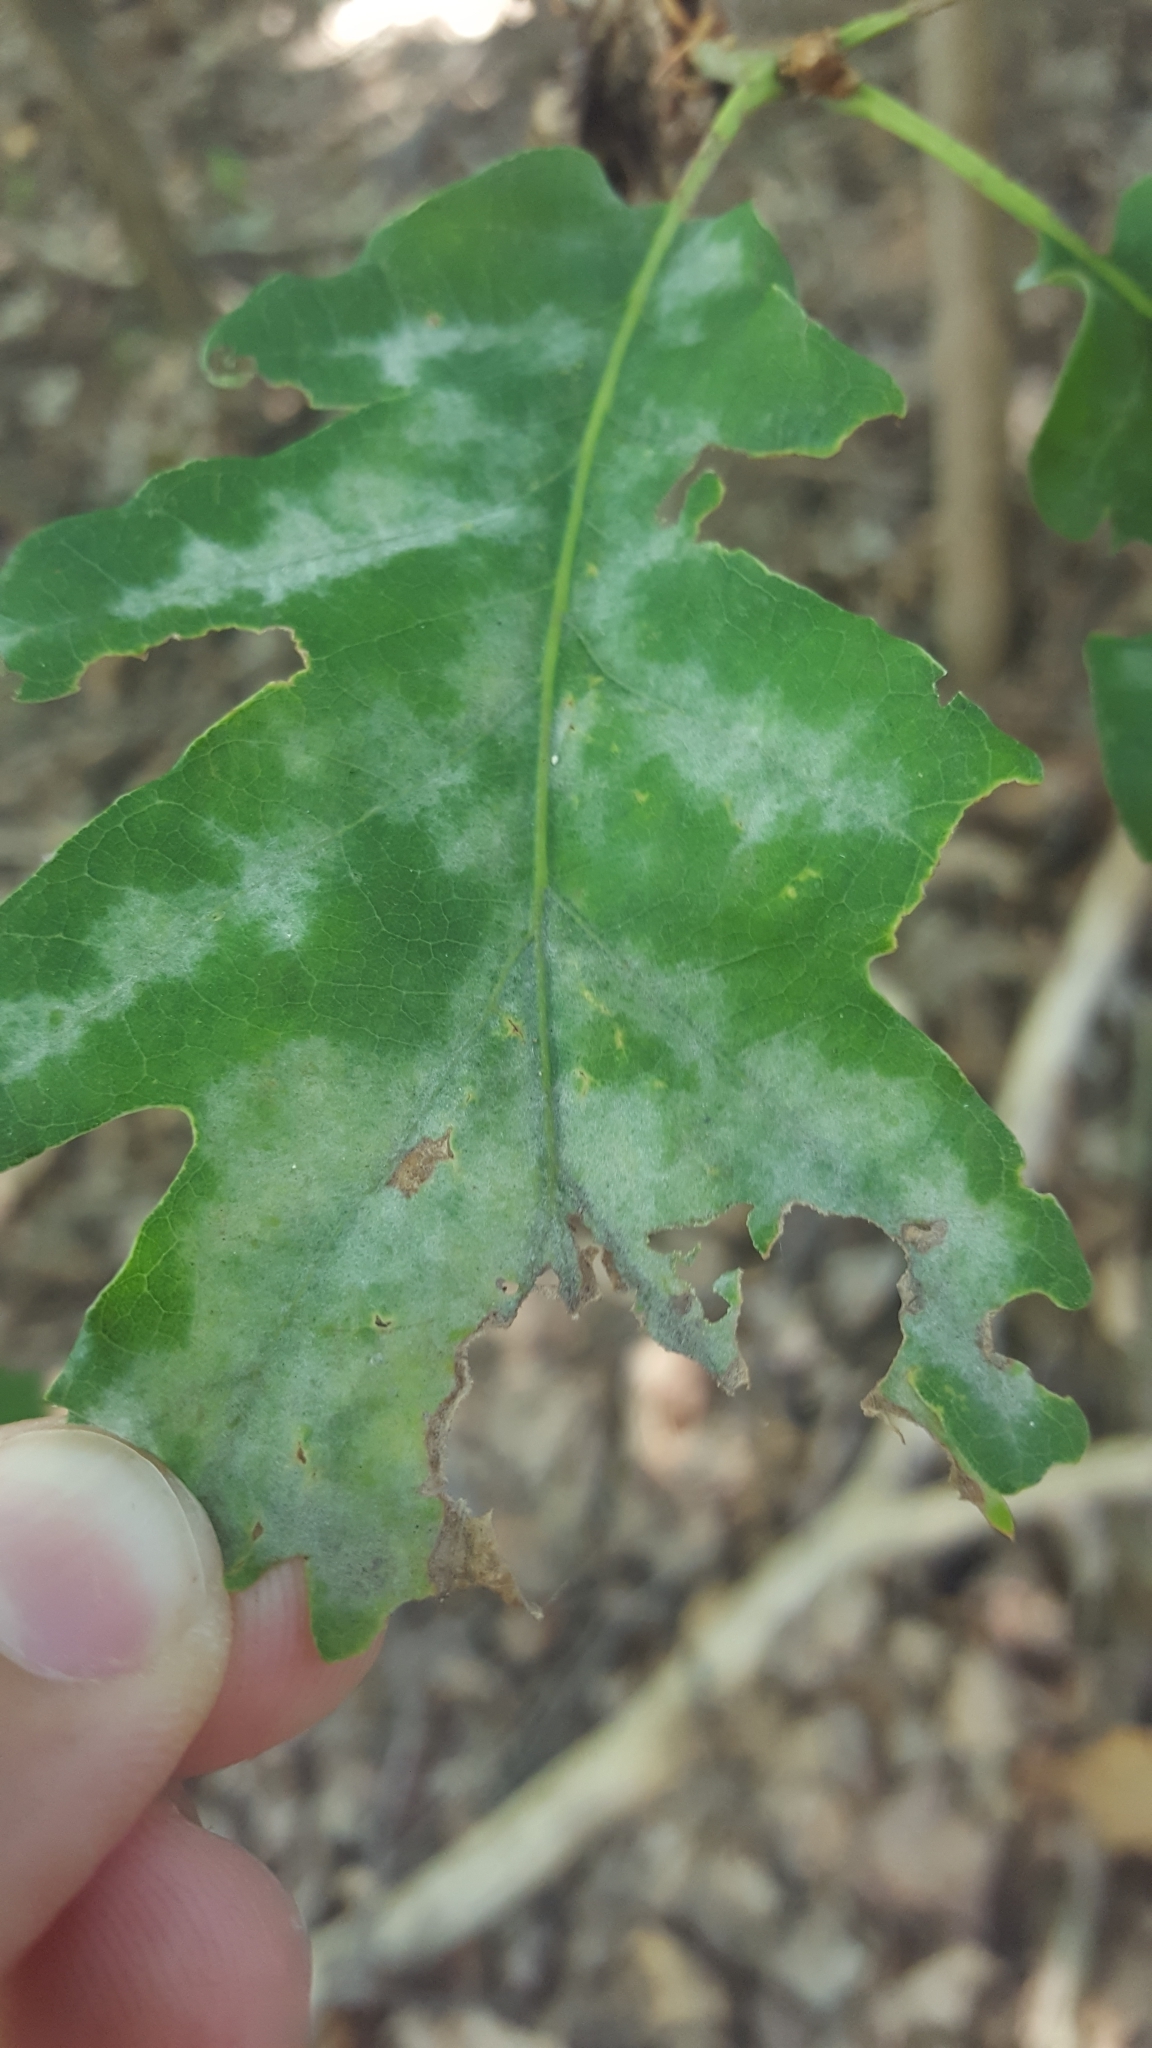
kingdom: Fungi
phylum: Ascomycota
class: Leotiomycetes
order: Helotiales
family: Erysiphaceae
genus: Erysiphe
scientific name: Erysiphe
